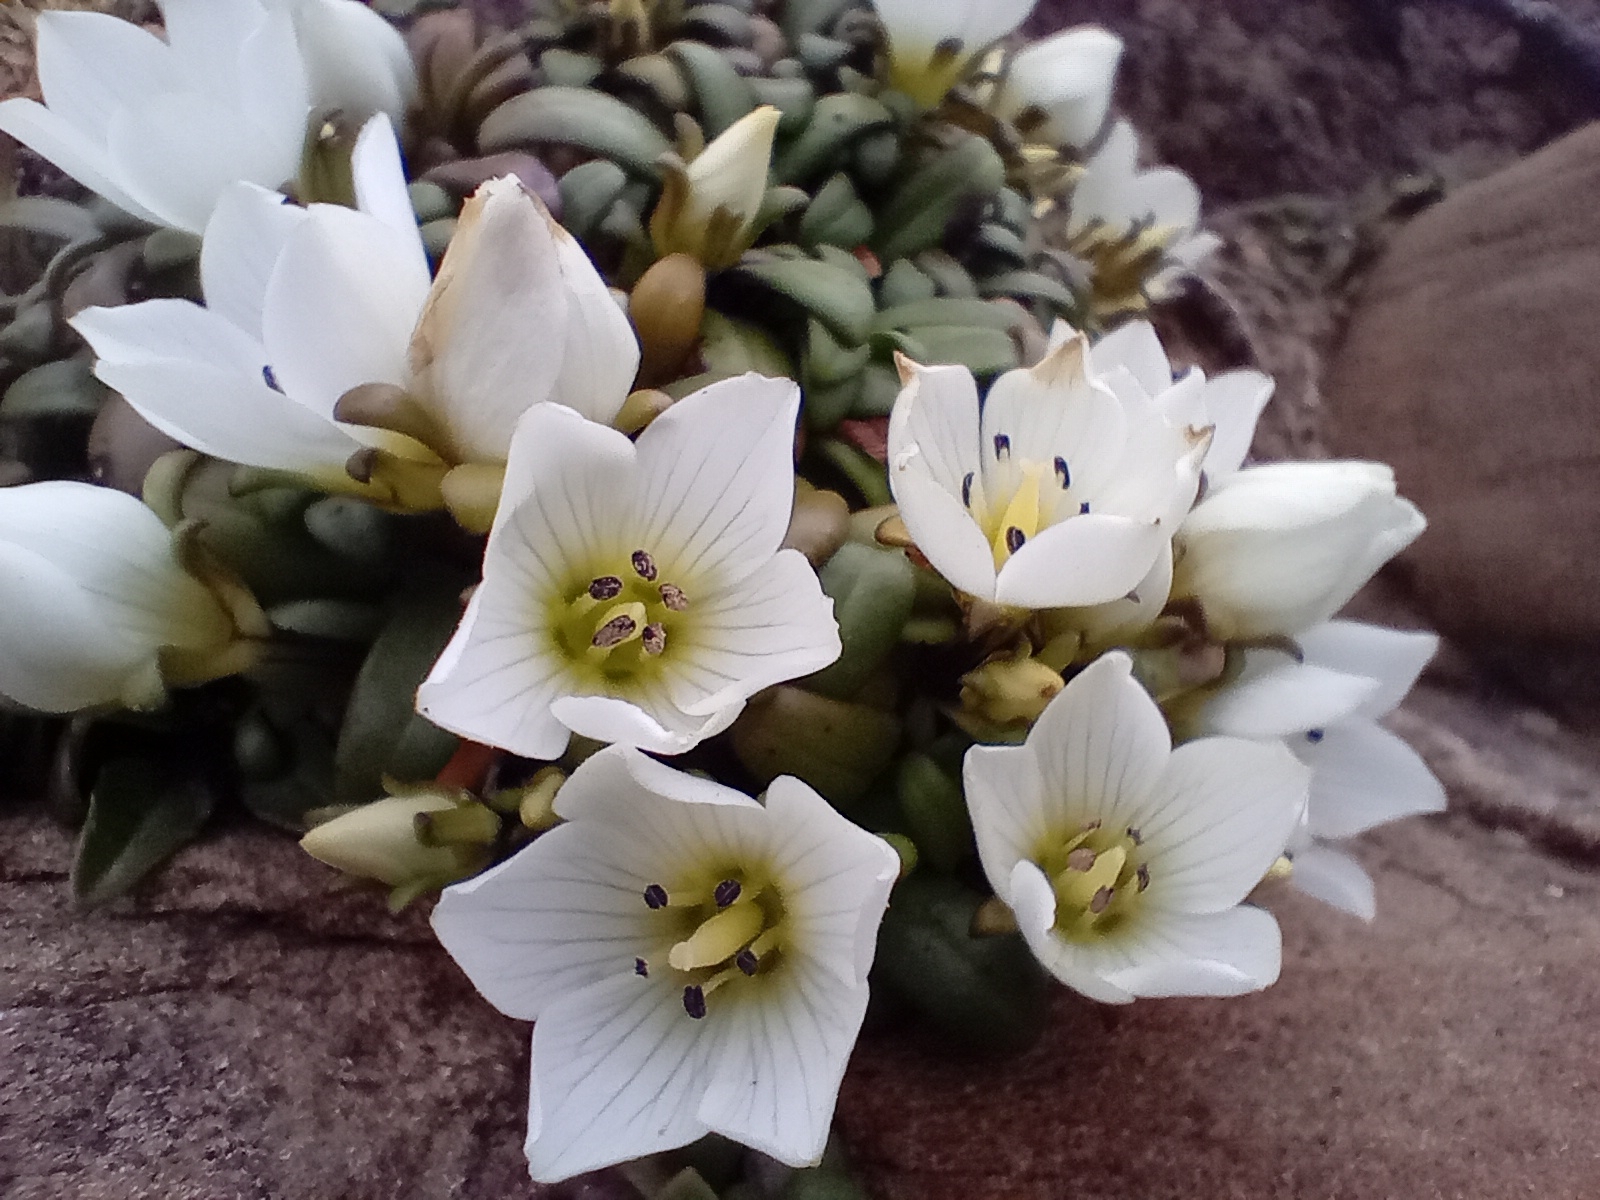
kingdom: Plantae
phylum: Tracheophyta
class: Magnoliopsida
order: Gentianales
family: Gentianaceae
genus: Gentianella
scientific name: Gentianella saxosa
